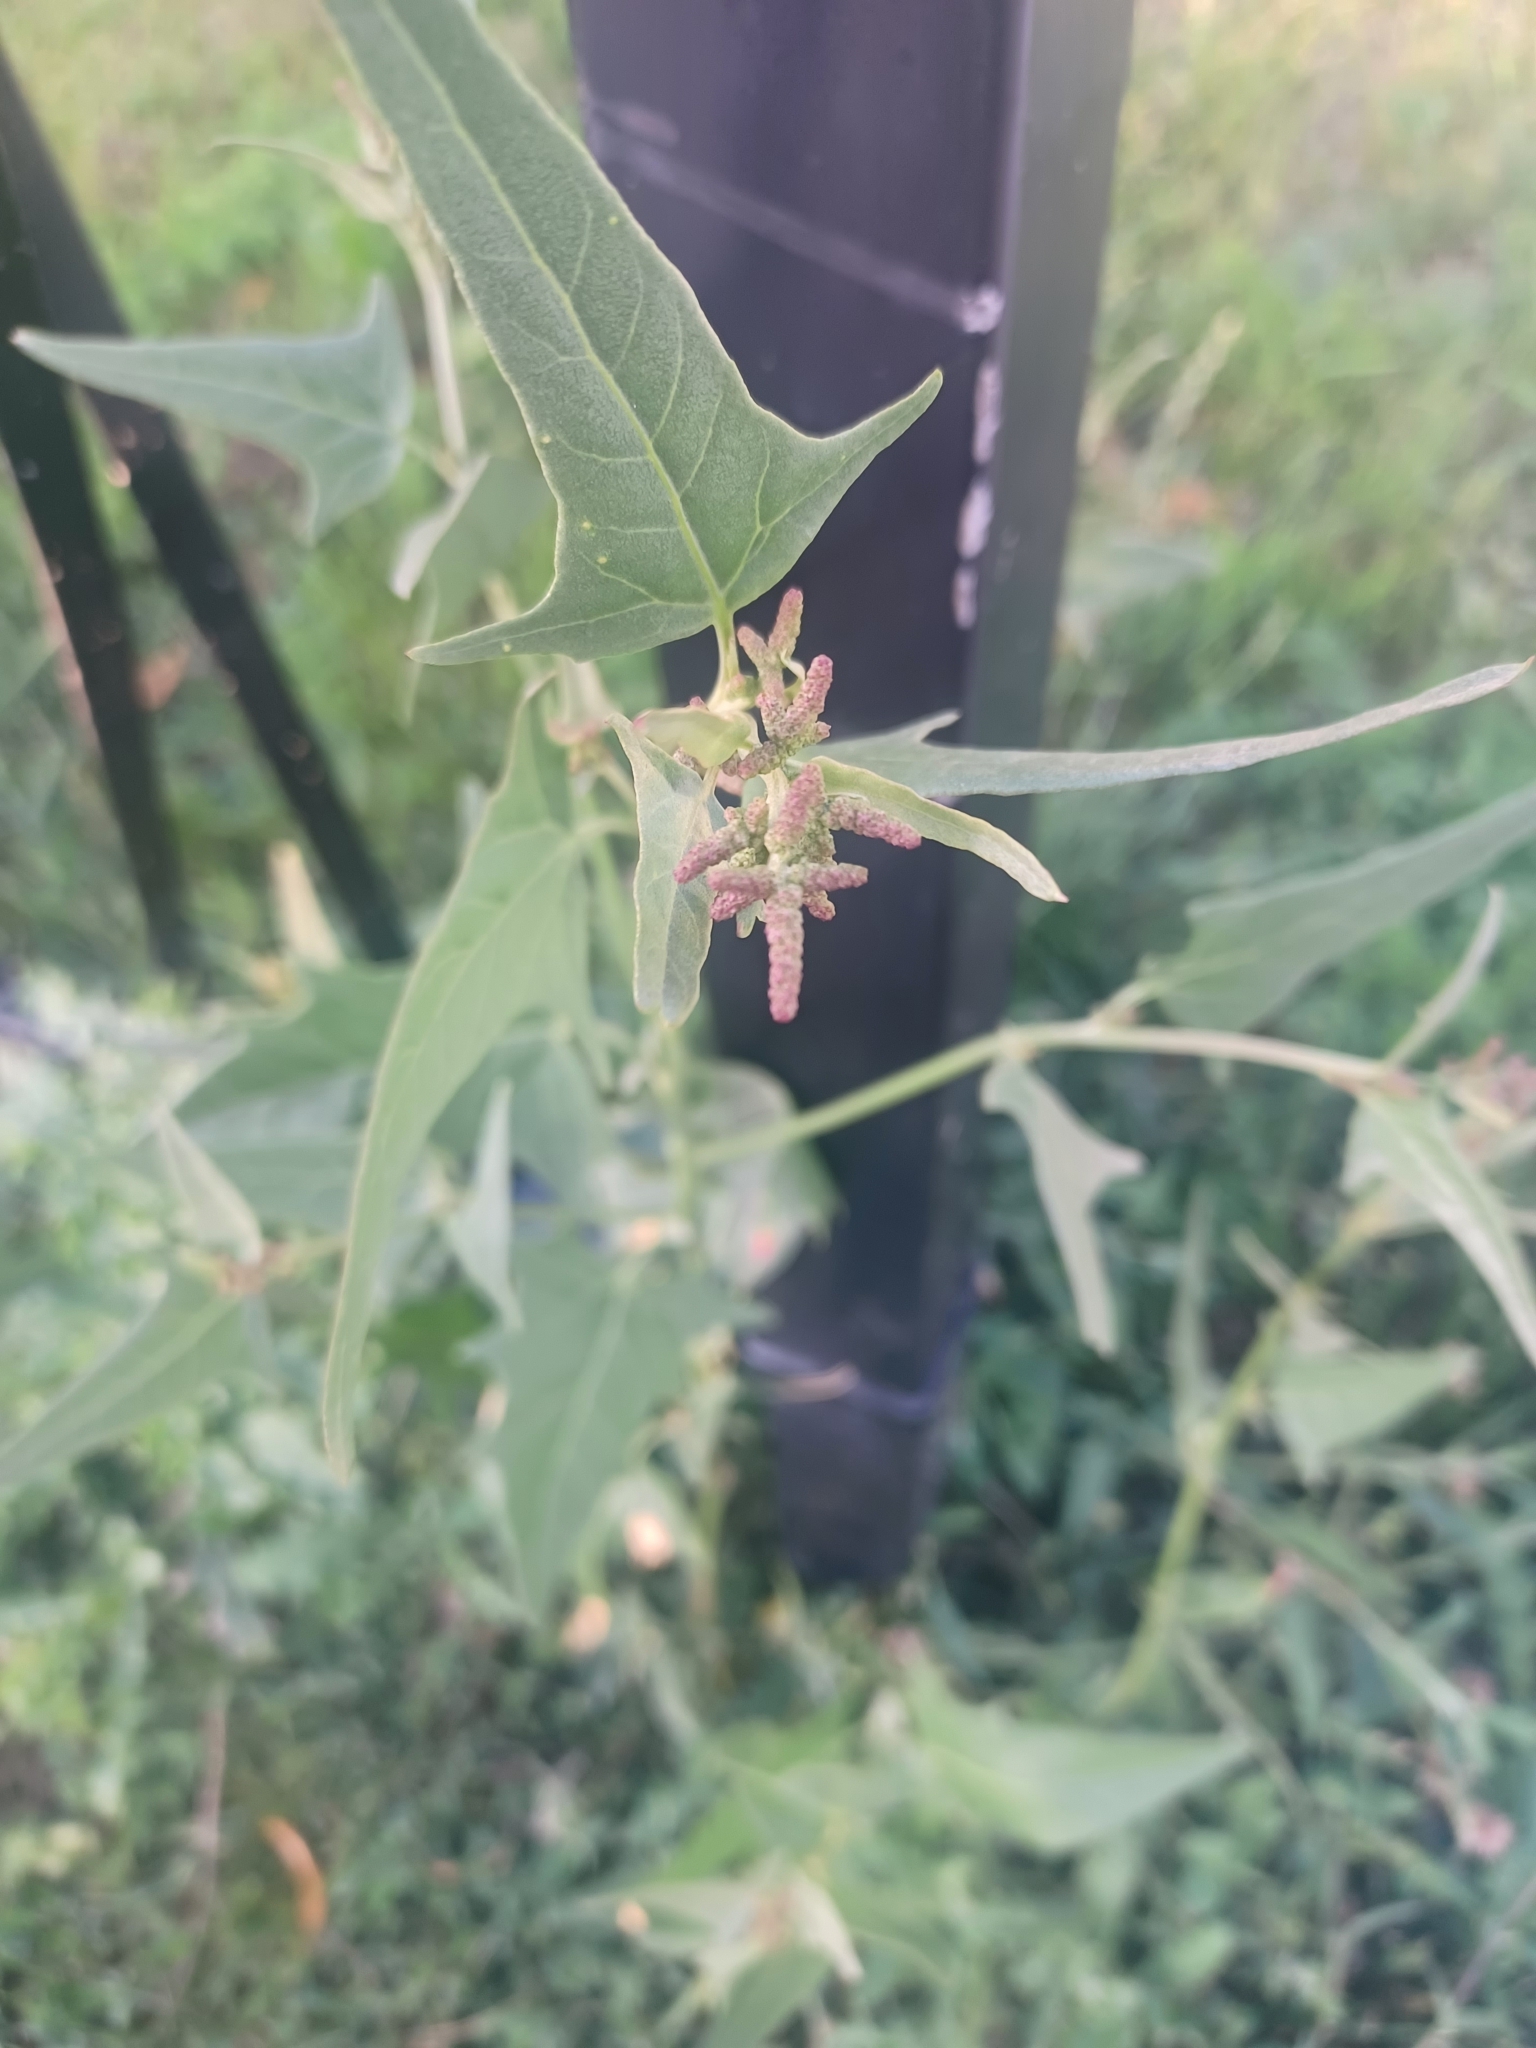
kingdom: Plantae
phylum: Tracheophyta
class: Magnoliopsida
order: Caryophyllales
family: Amaranthaceae
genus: Atriplex
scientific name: Atriplex micrantha
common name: Twoscale saltbush
